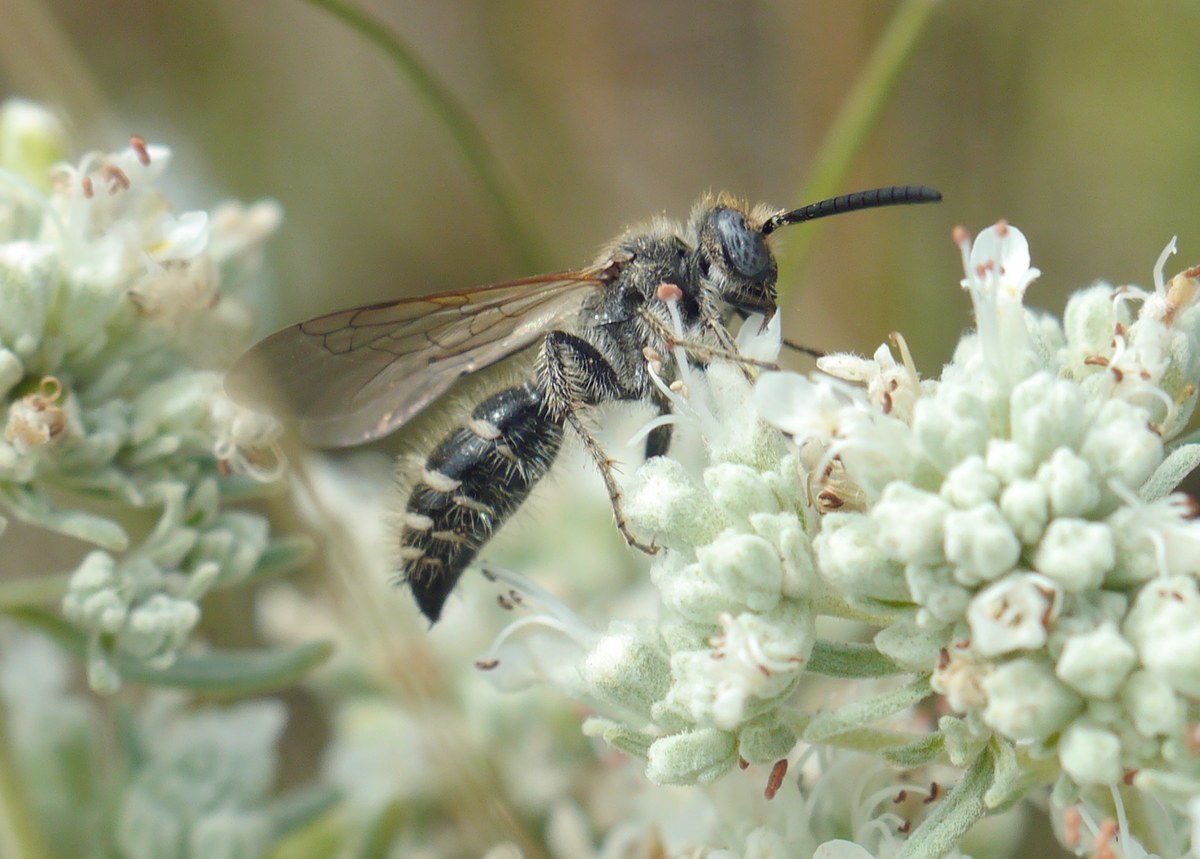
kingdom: Animalia
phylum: Arthropoda
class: Insecta
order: Hymenoptera
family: Scoliidae
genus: Colpa
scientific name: Colpa quinquecincta
